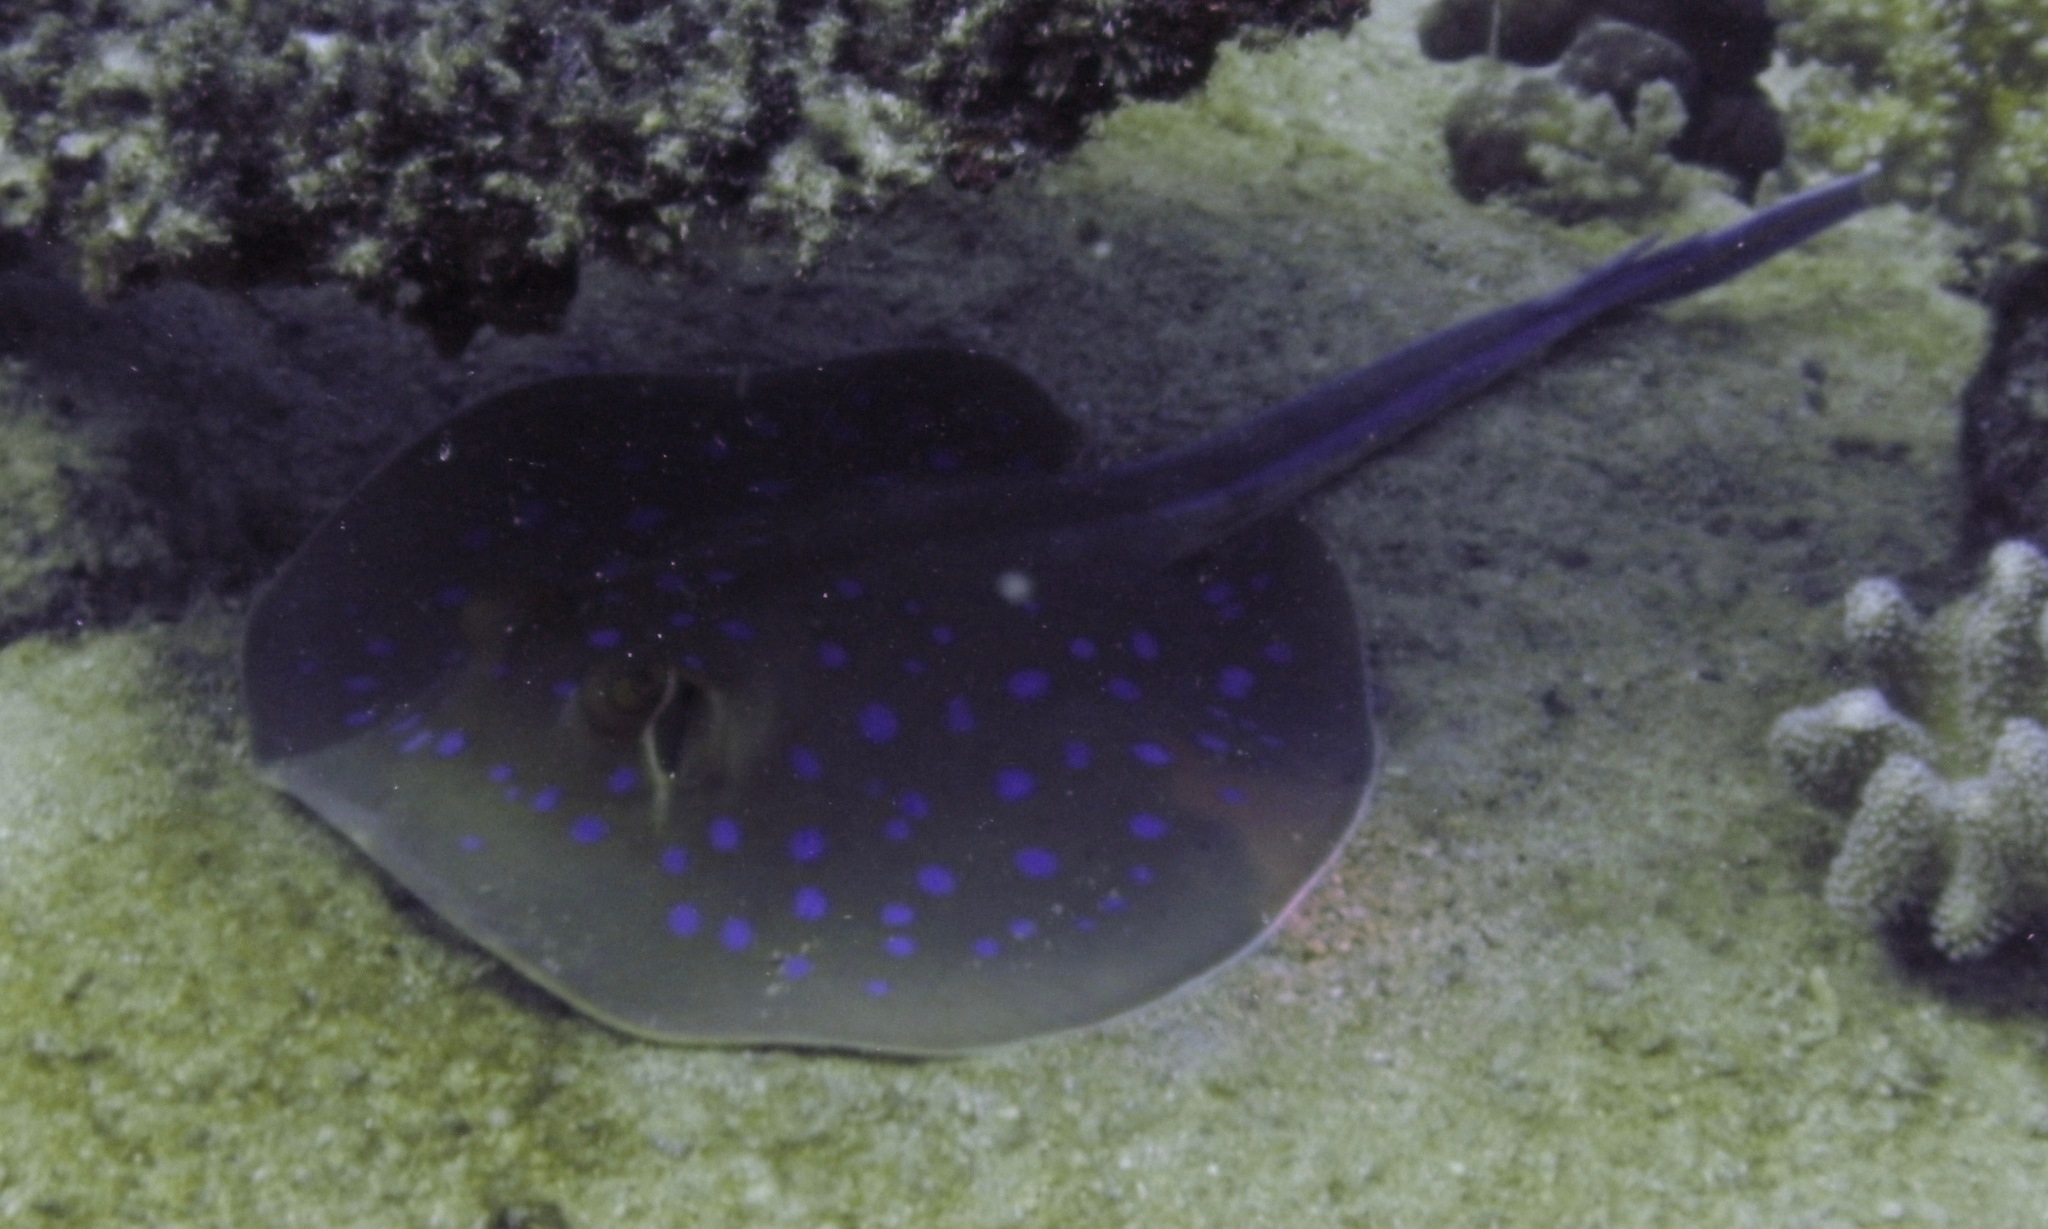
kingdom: Animalia
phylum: Chordata
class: Elasmobranchii
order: Myliobatiformes
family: Dasyatidae
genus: Taeniura
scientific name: Taeniura lymma
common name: Bluespotted ribbontail ray
